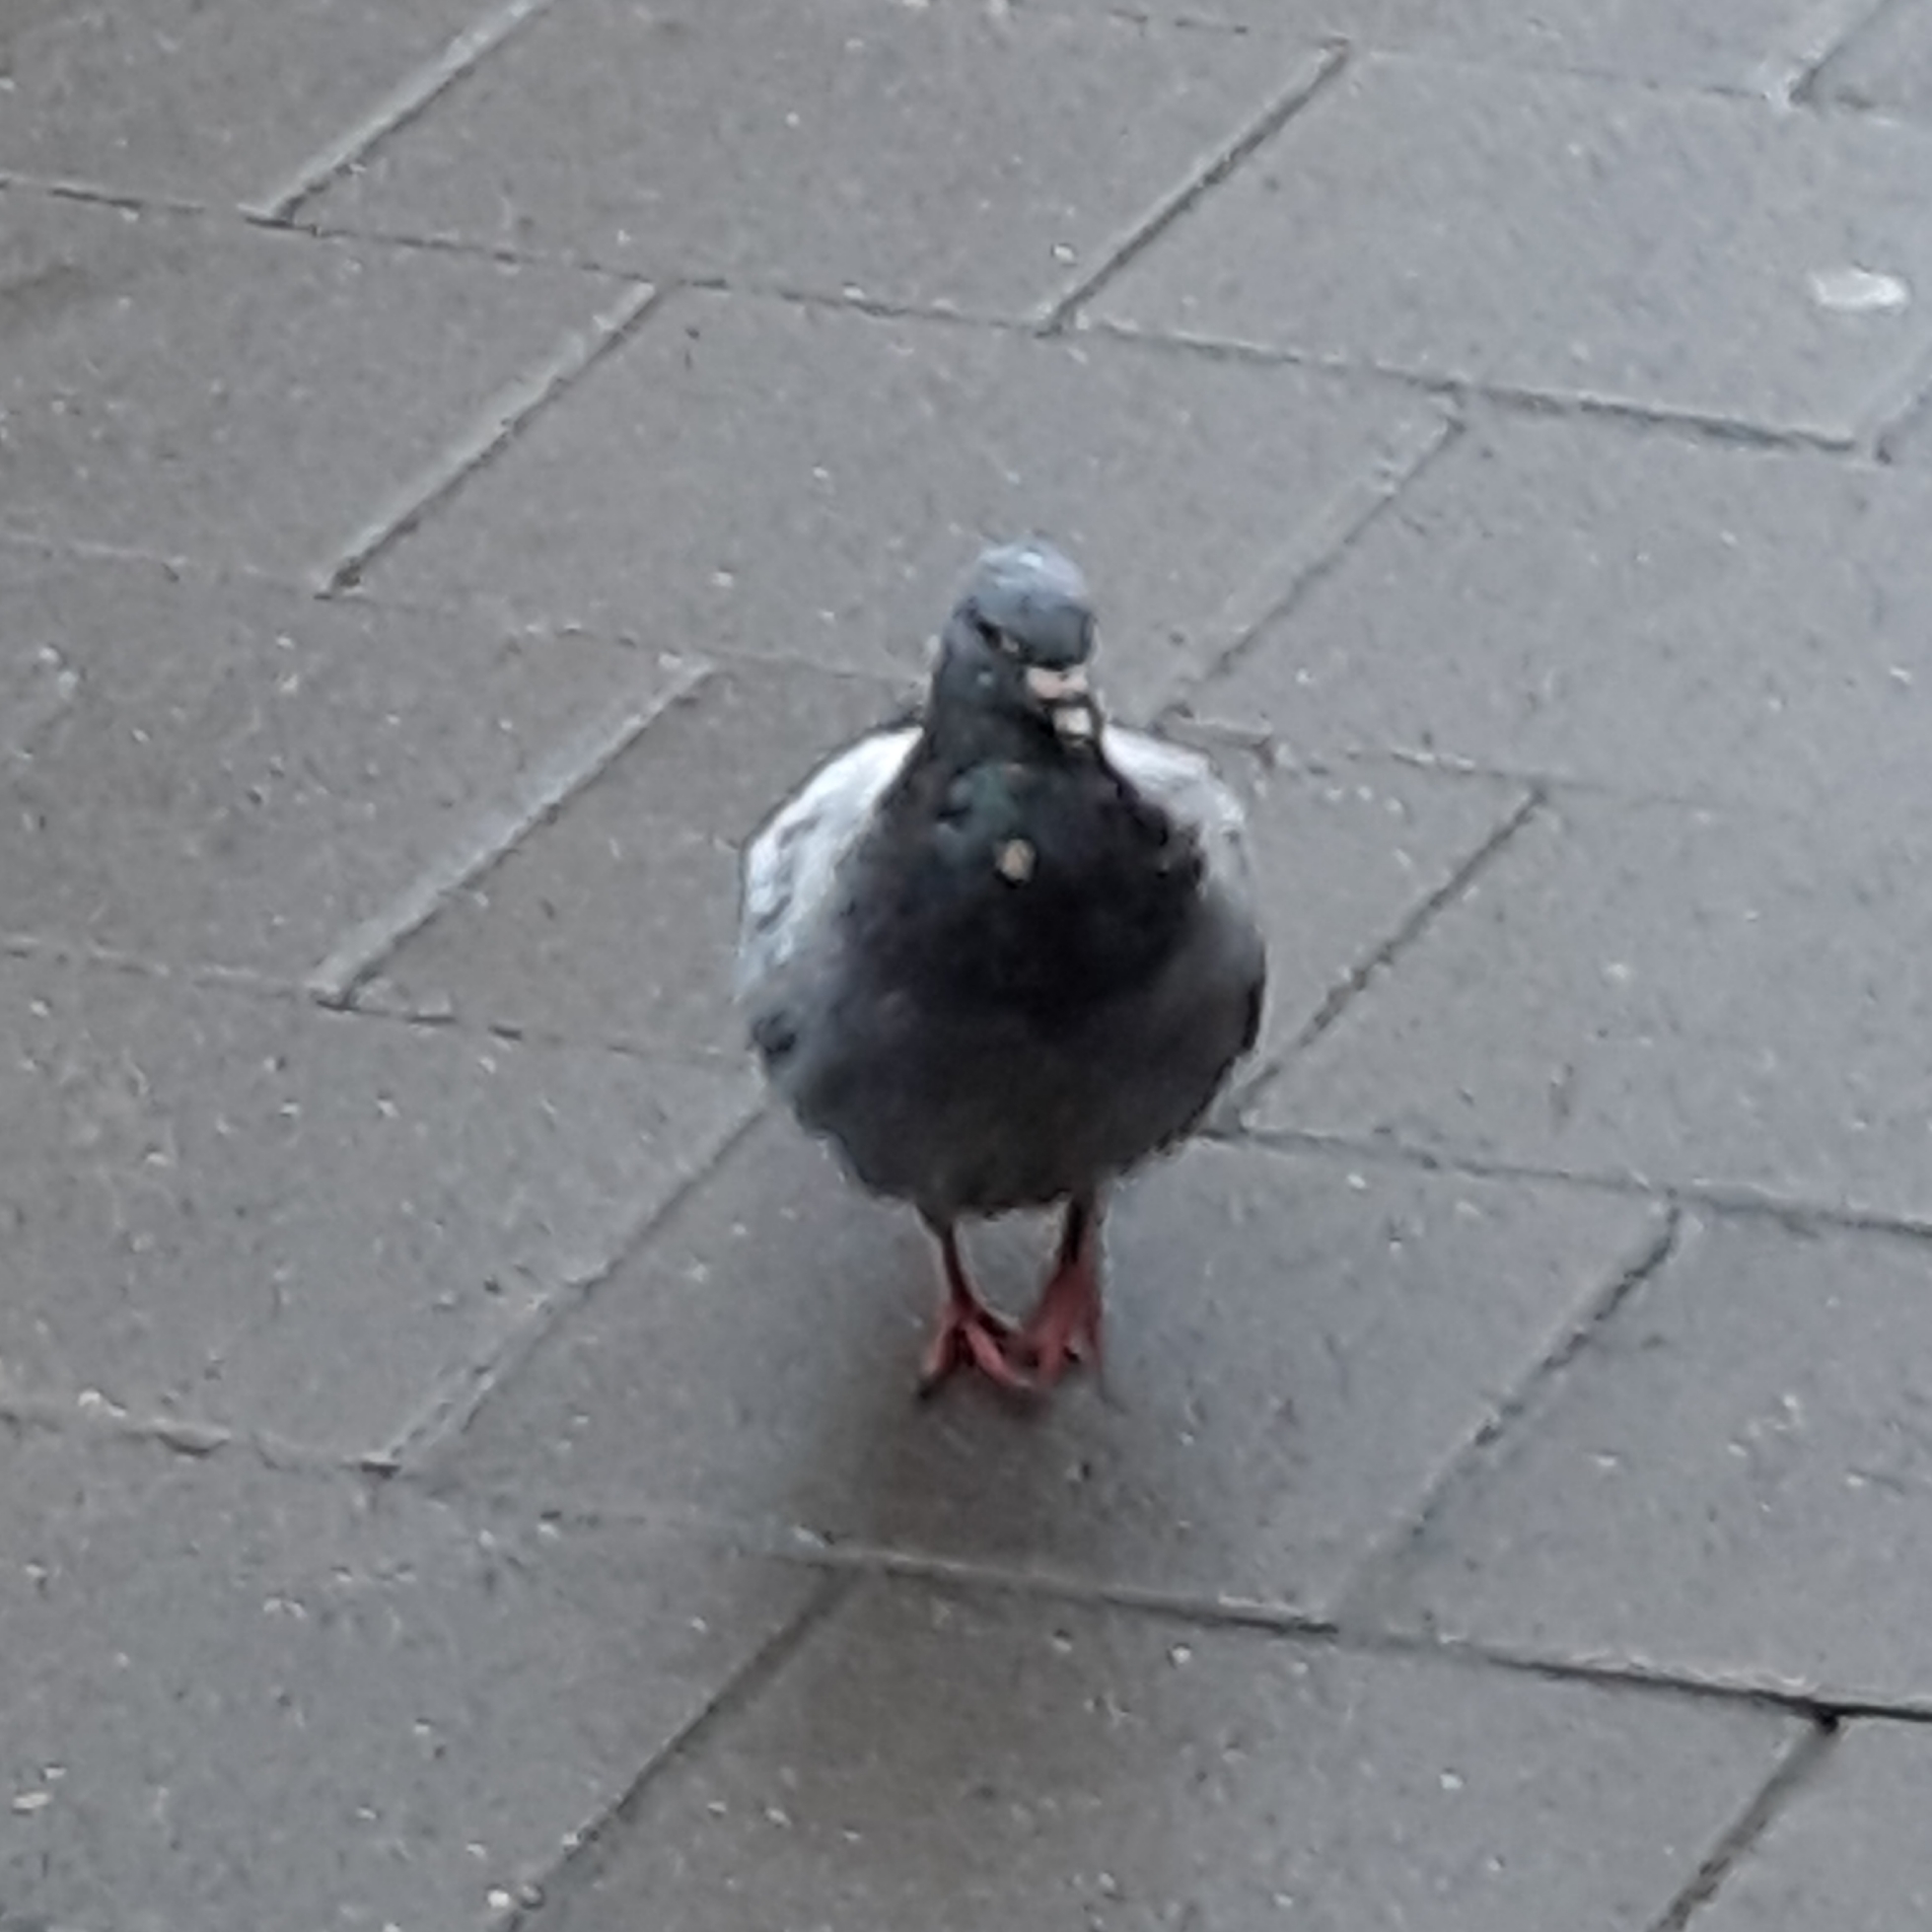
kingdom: Animalia
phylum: Chordata
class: Aves
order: Columbiformes
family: Columbidae
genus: Columba
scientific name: Columba livia
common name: Rock pigeon
